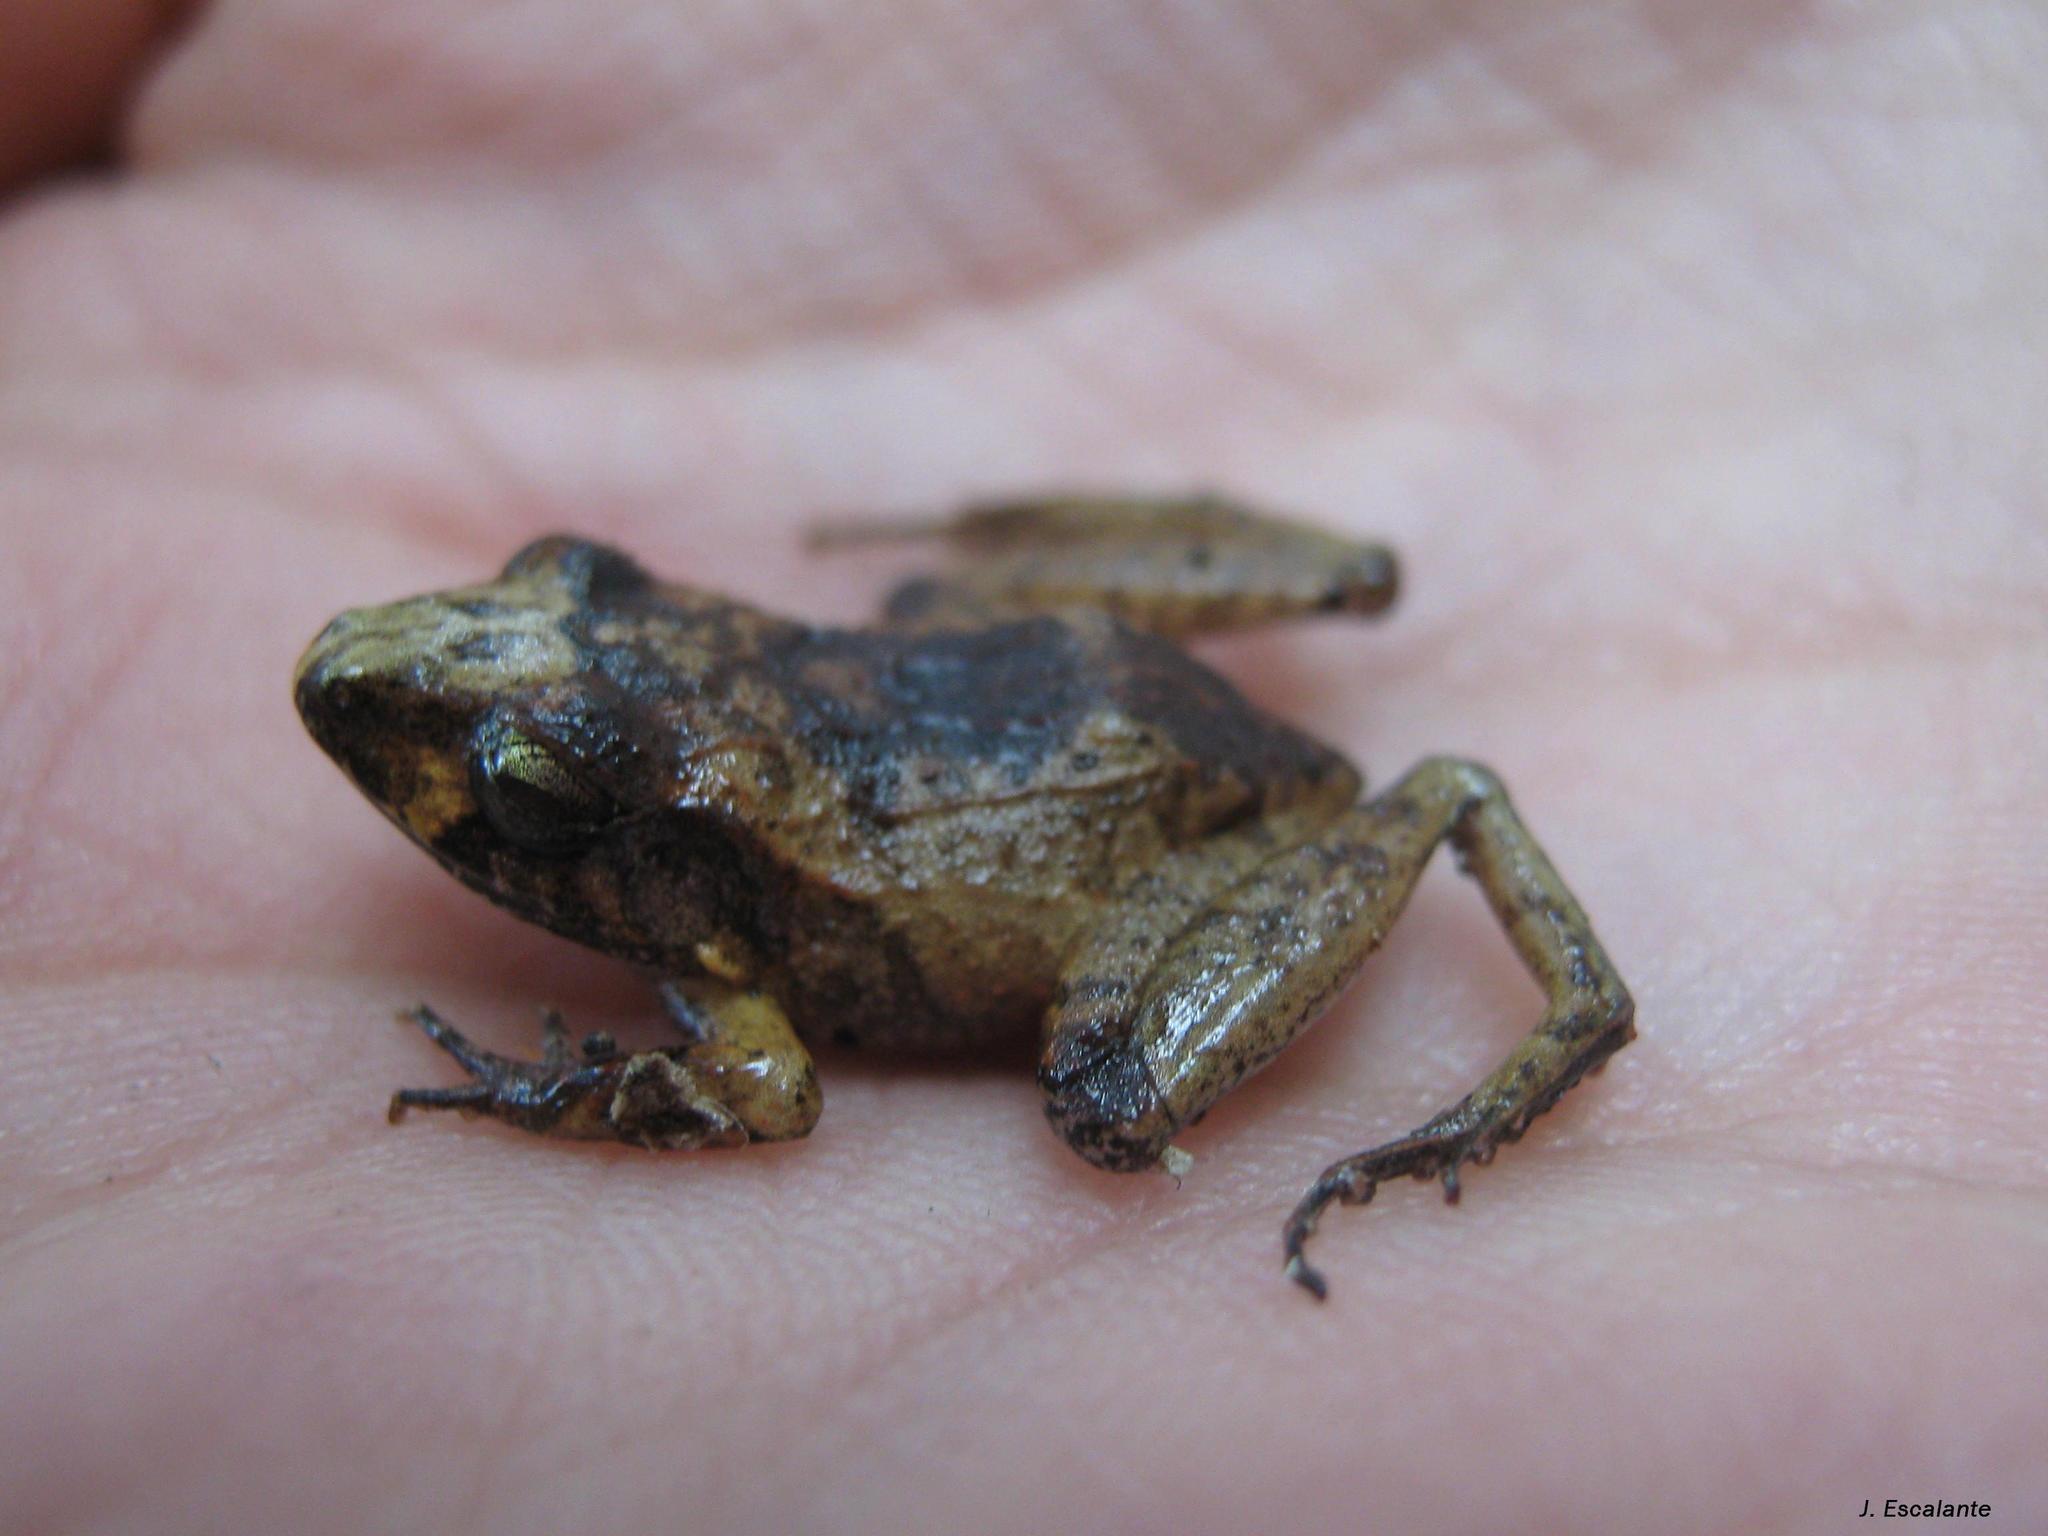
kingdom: Animalia
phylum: Chordata
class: Amphibia
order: Anura
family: Craugastoridae
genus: Craugastor
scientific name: Craugastor loki
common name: Common leaf-litter frog
